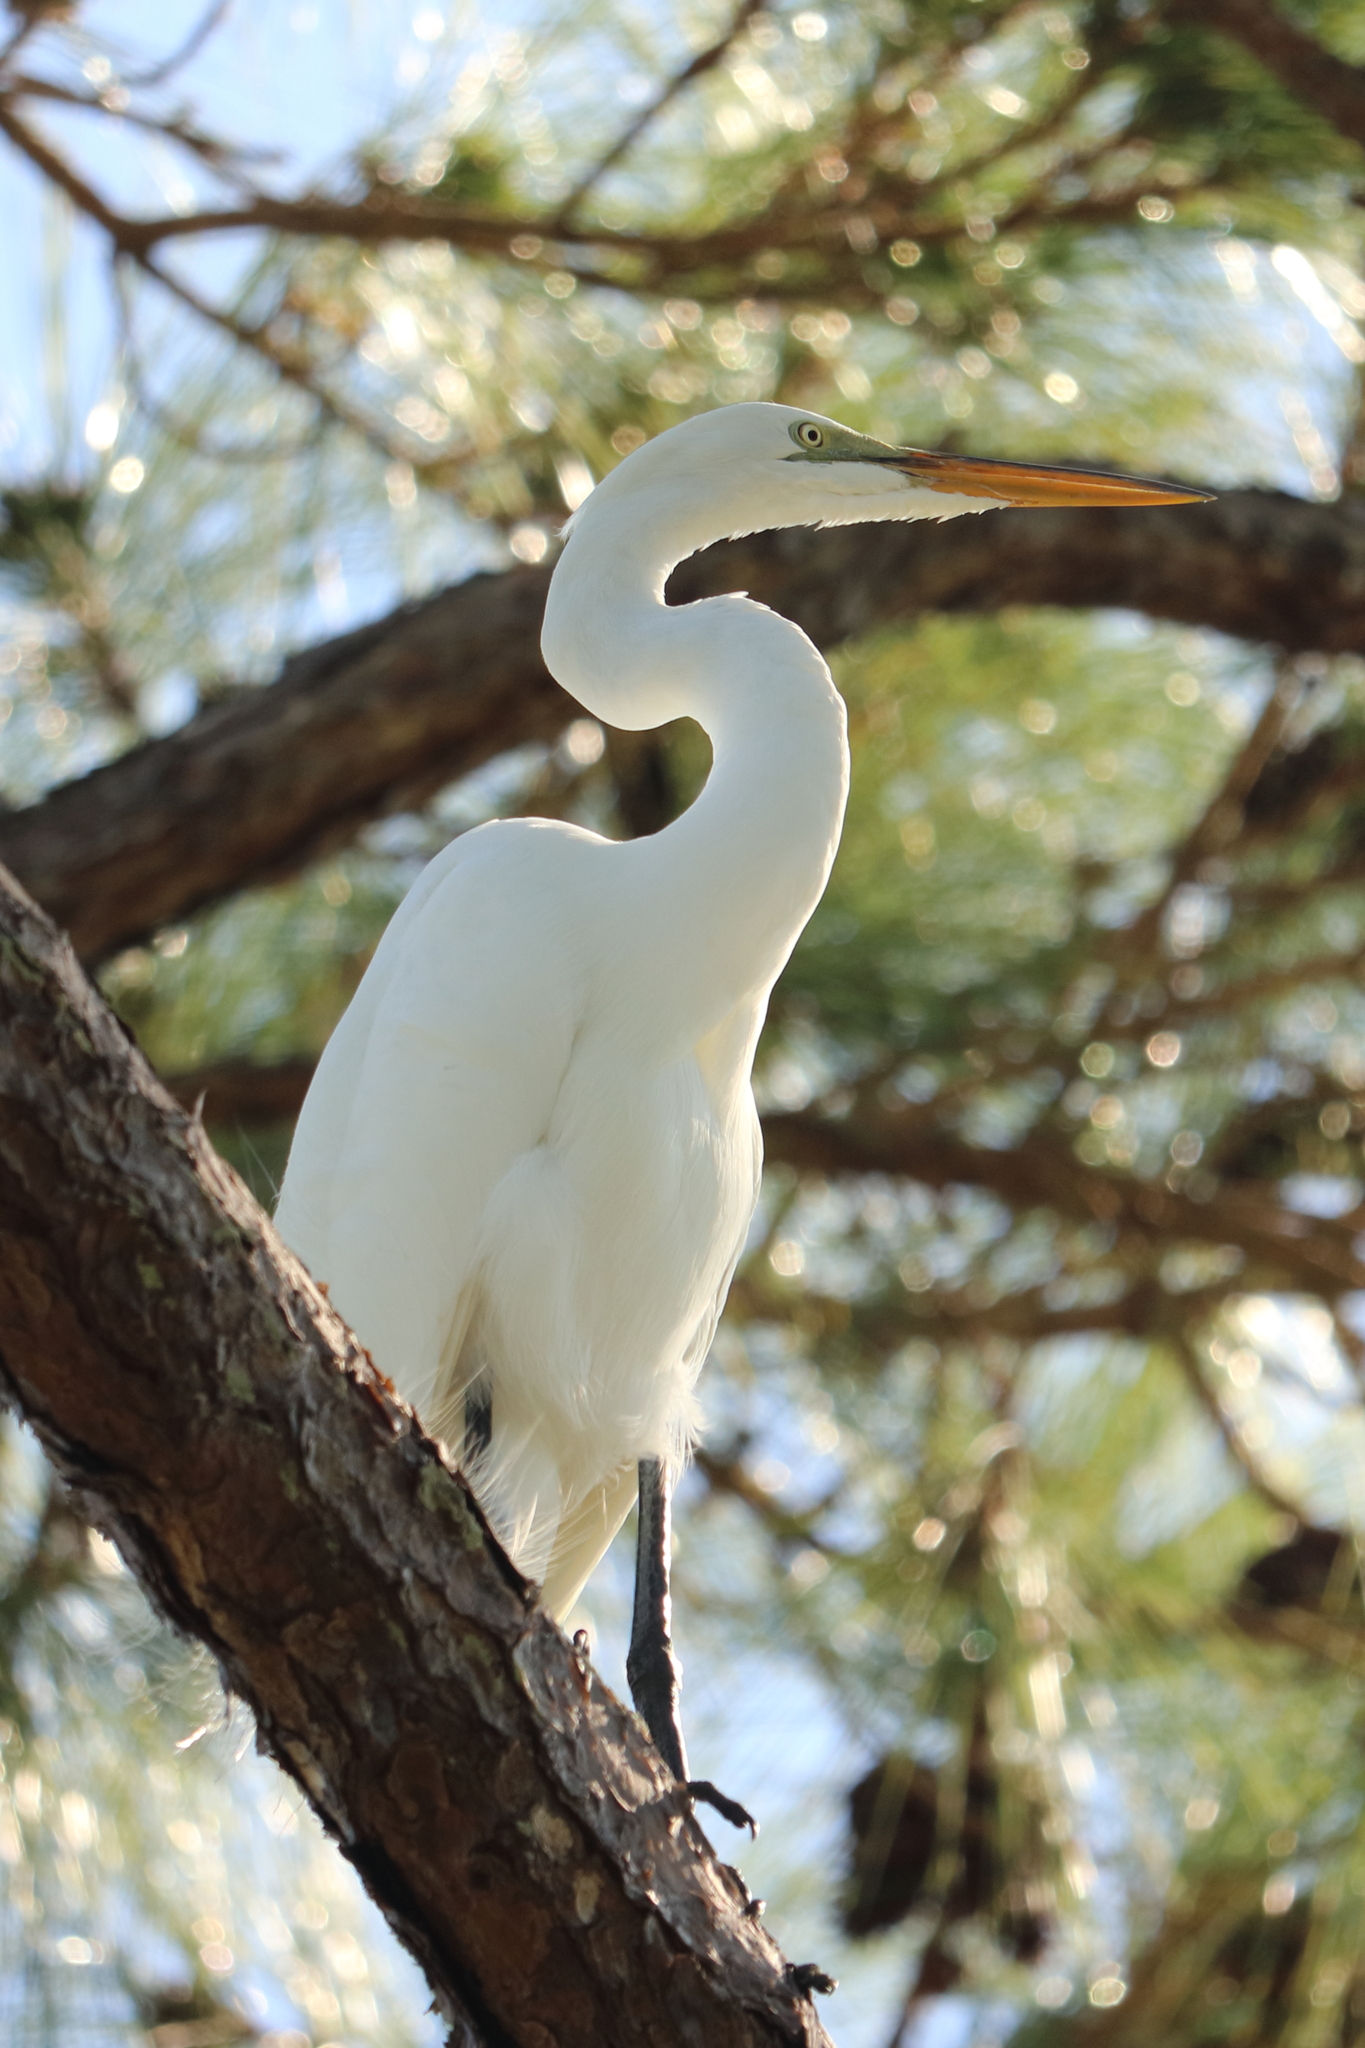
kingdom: Animalia
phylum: Chordata
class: Aves
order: Pelecaniformes
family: Ardeidae
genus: Ardea
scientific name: Ardea alba
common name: Great egret
